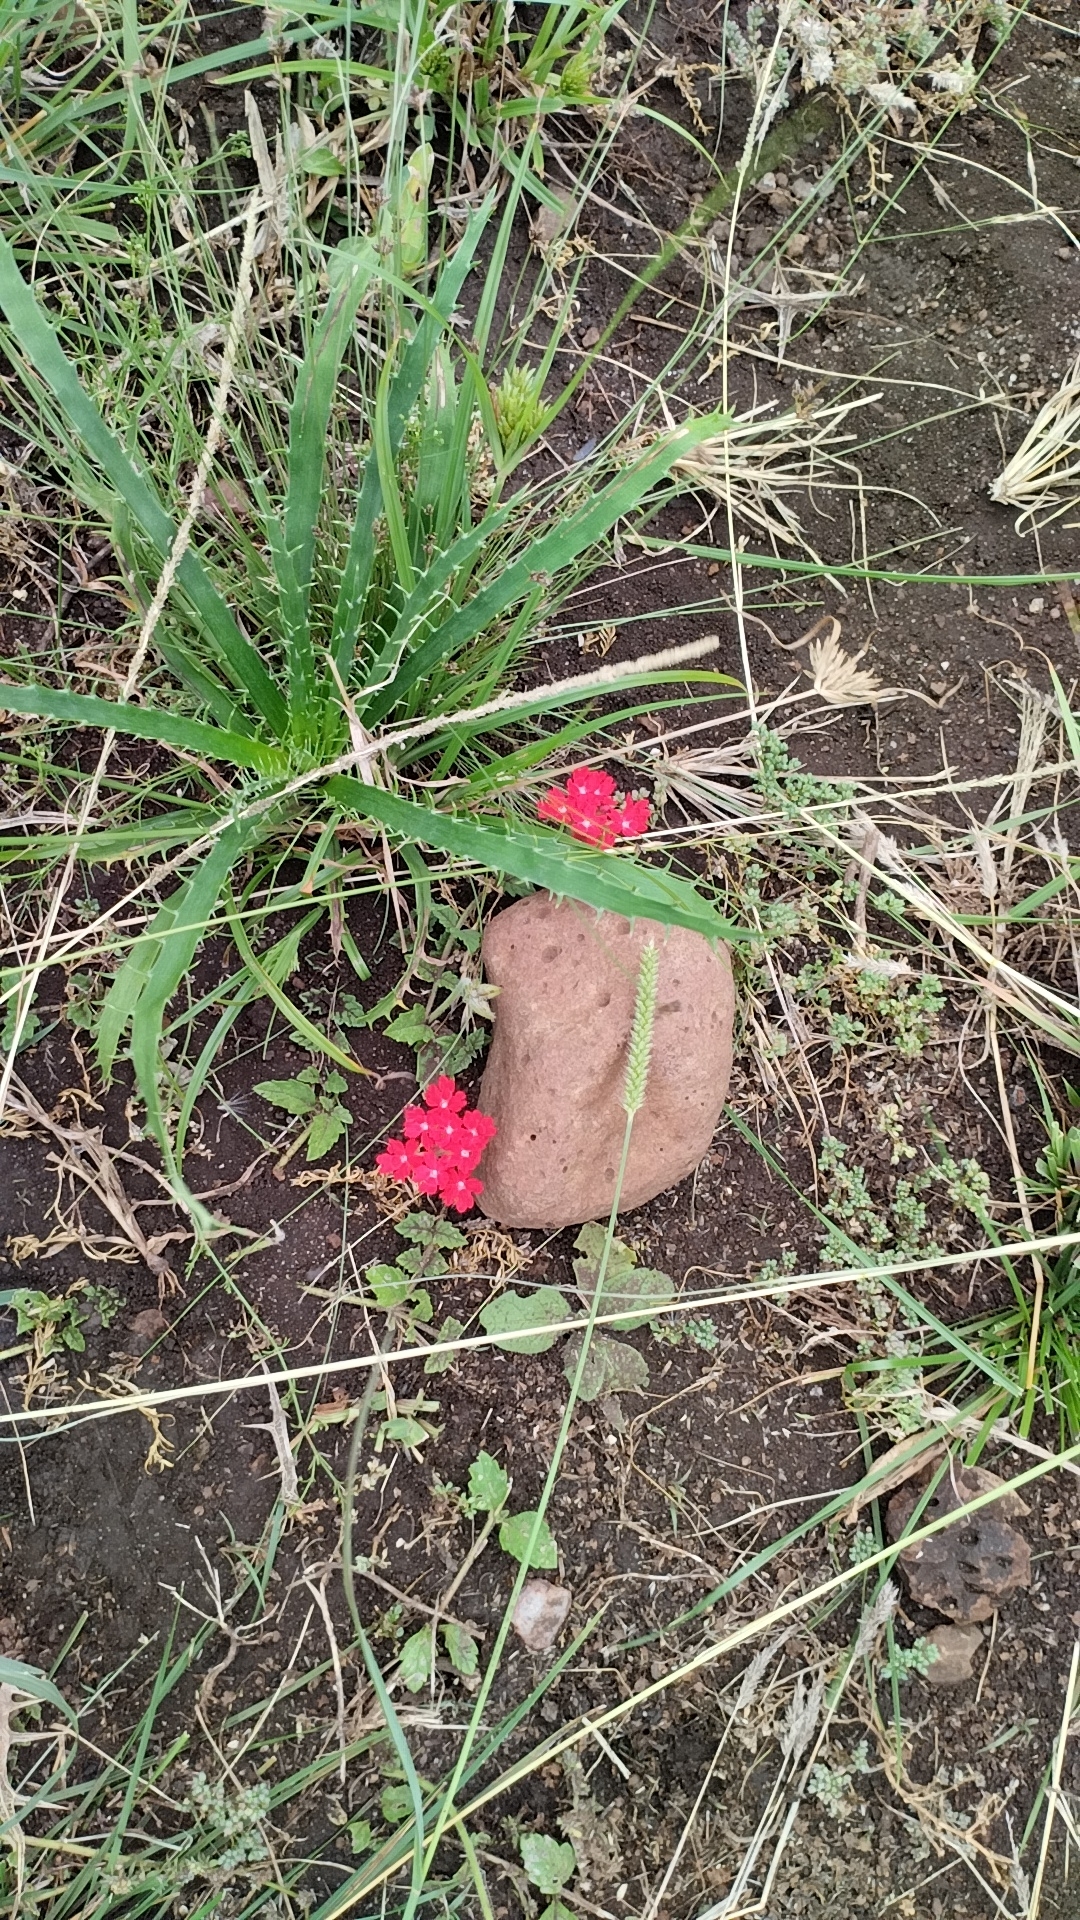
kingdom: Plantae
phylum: Tracheophyta
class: Magnoliopsida
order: Lamiales
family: Verbenaceae
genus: Verbena
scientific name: Verbena peruviana
